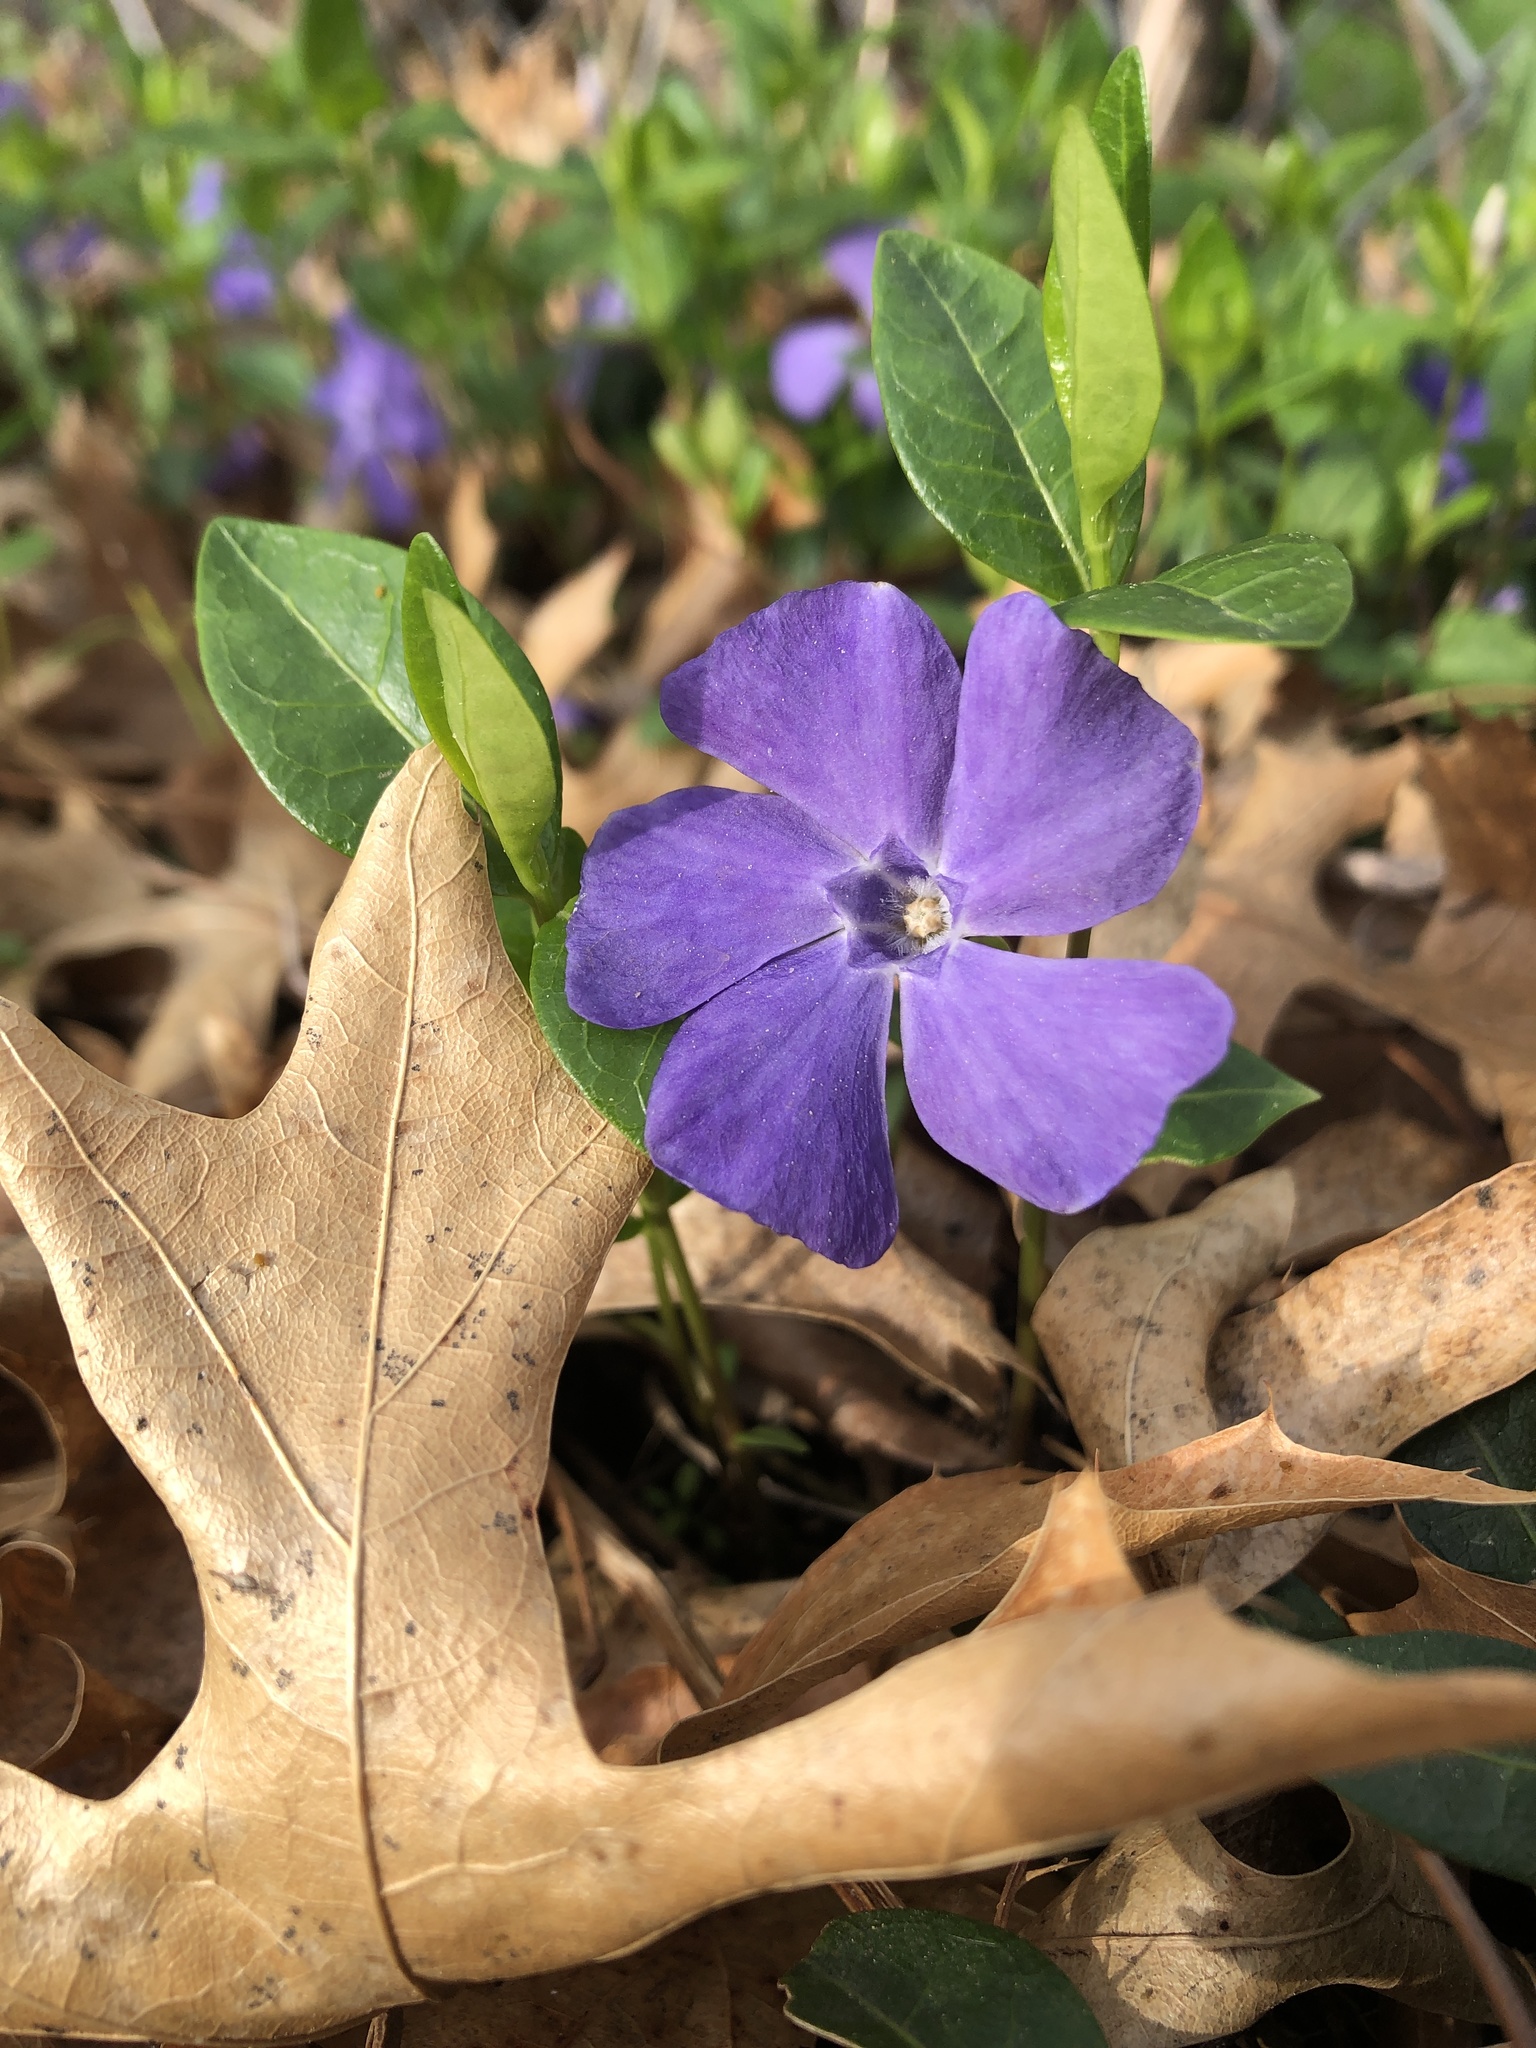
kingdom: Plantae
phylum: Tracheophyta
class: Magnoliopsida
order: Gentianales
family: Apocynaceae
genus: Vinca
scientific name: Vinca minor
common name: Lesser periwinkle
